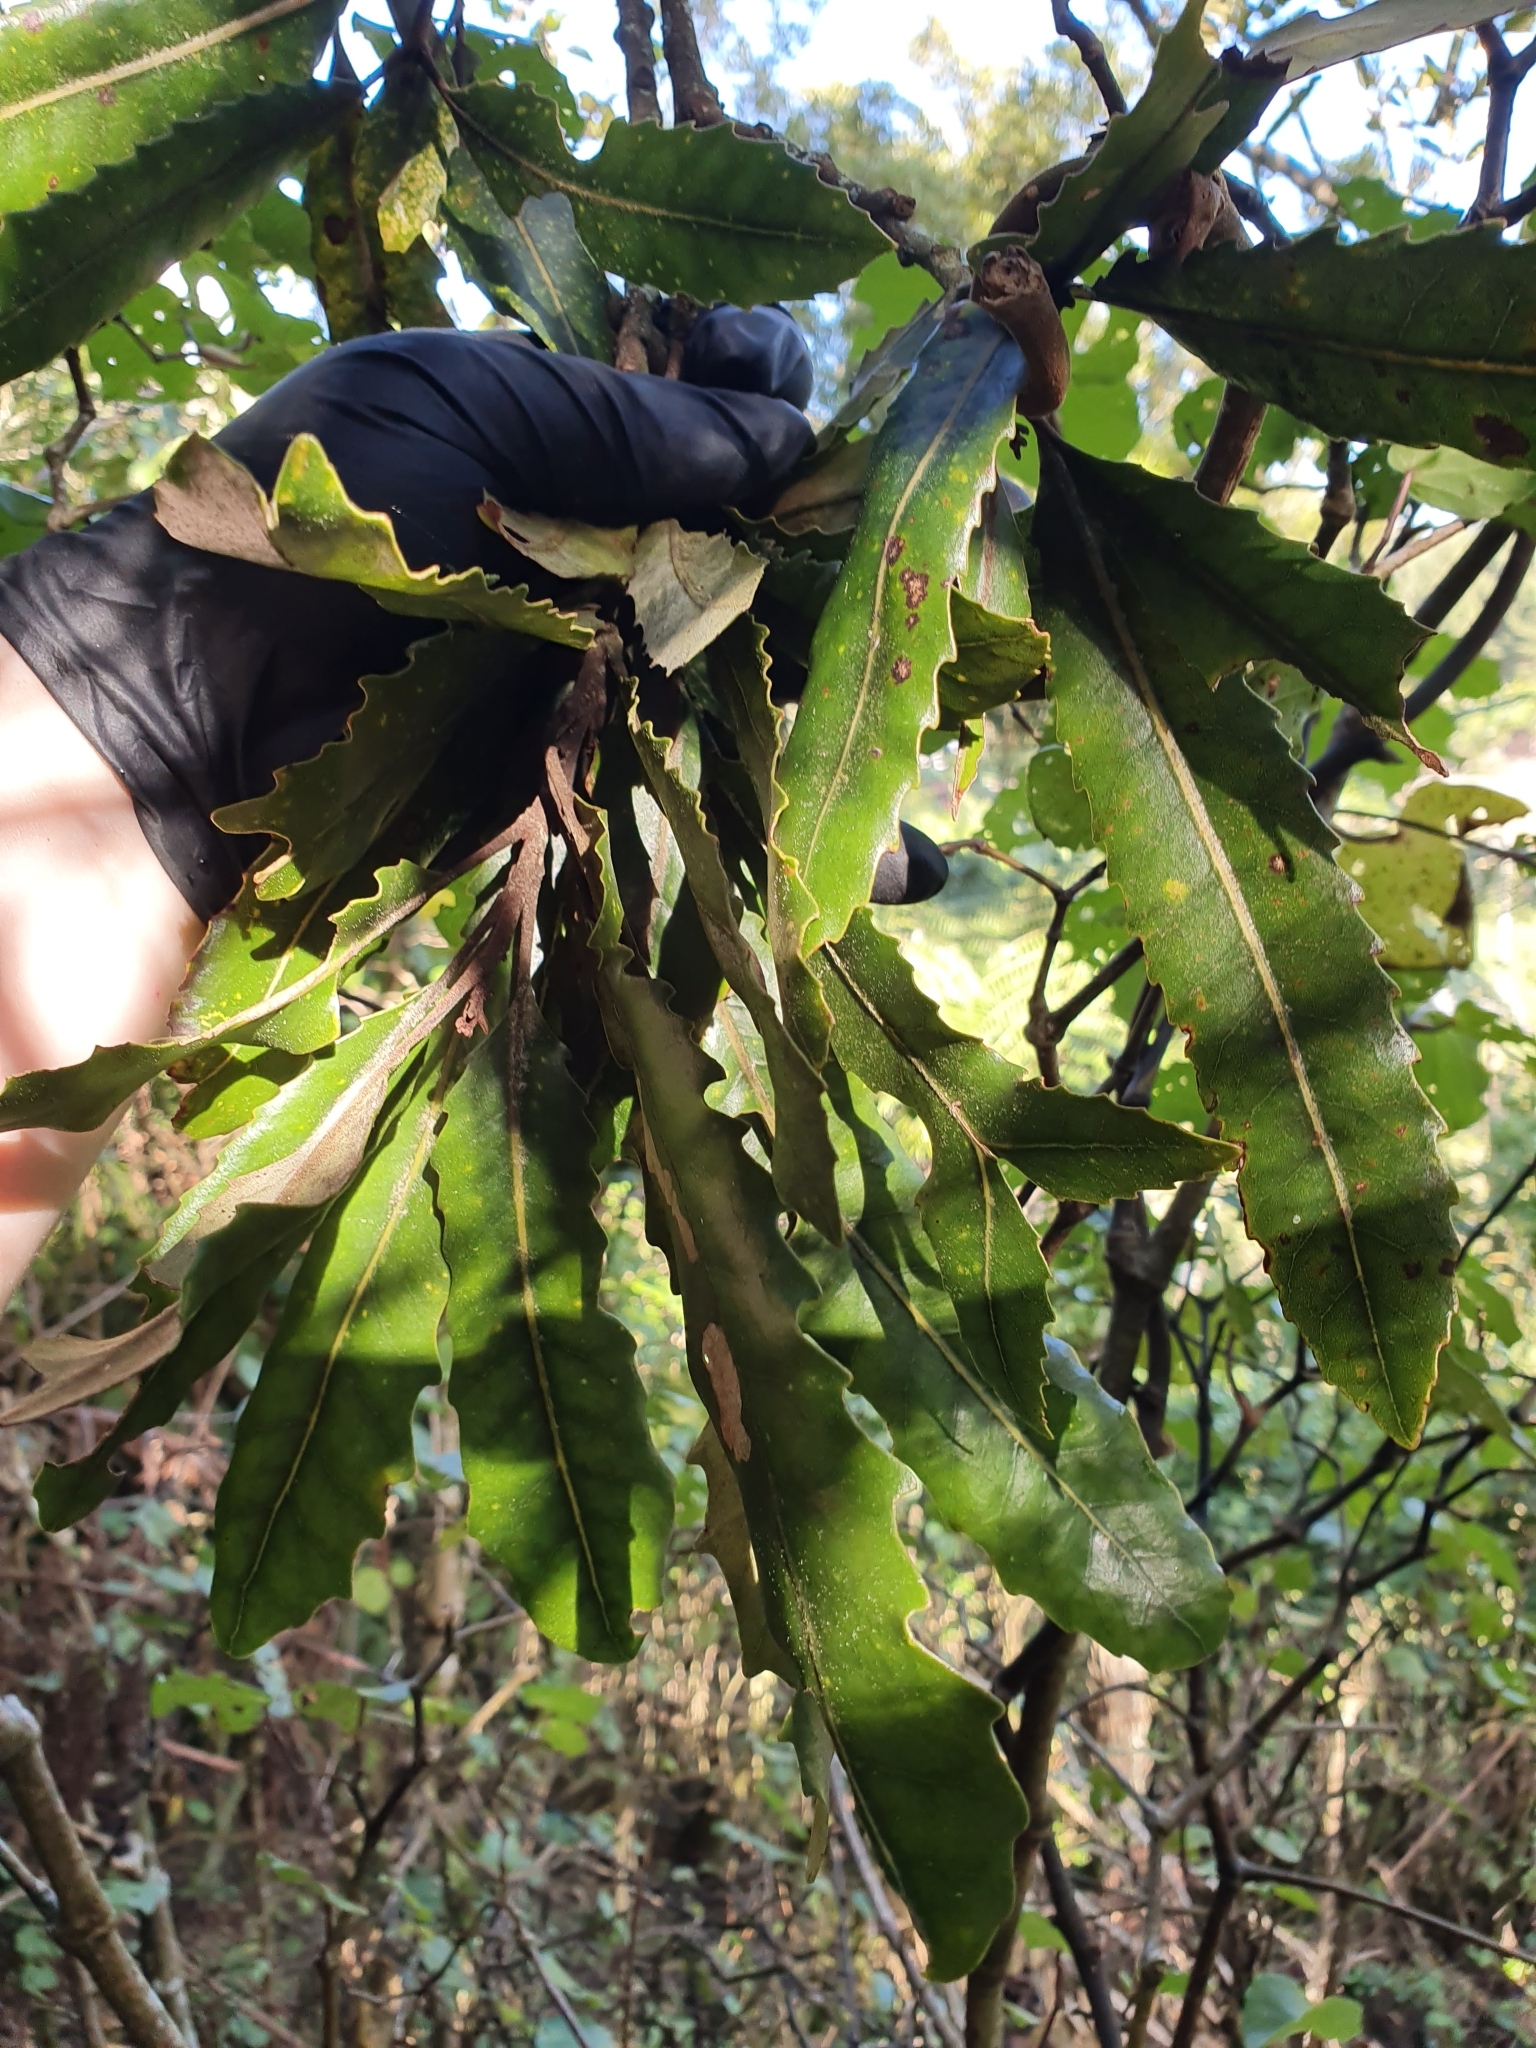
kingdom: Plantae
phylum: Tracheophyta
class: Magnoliopsida
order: Proteales
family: Proteaceae
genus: Knightia
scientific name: Knightia excelsa
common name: New zealand-honeysuckle
